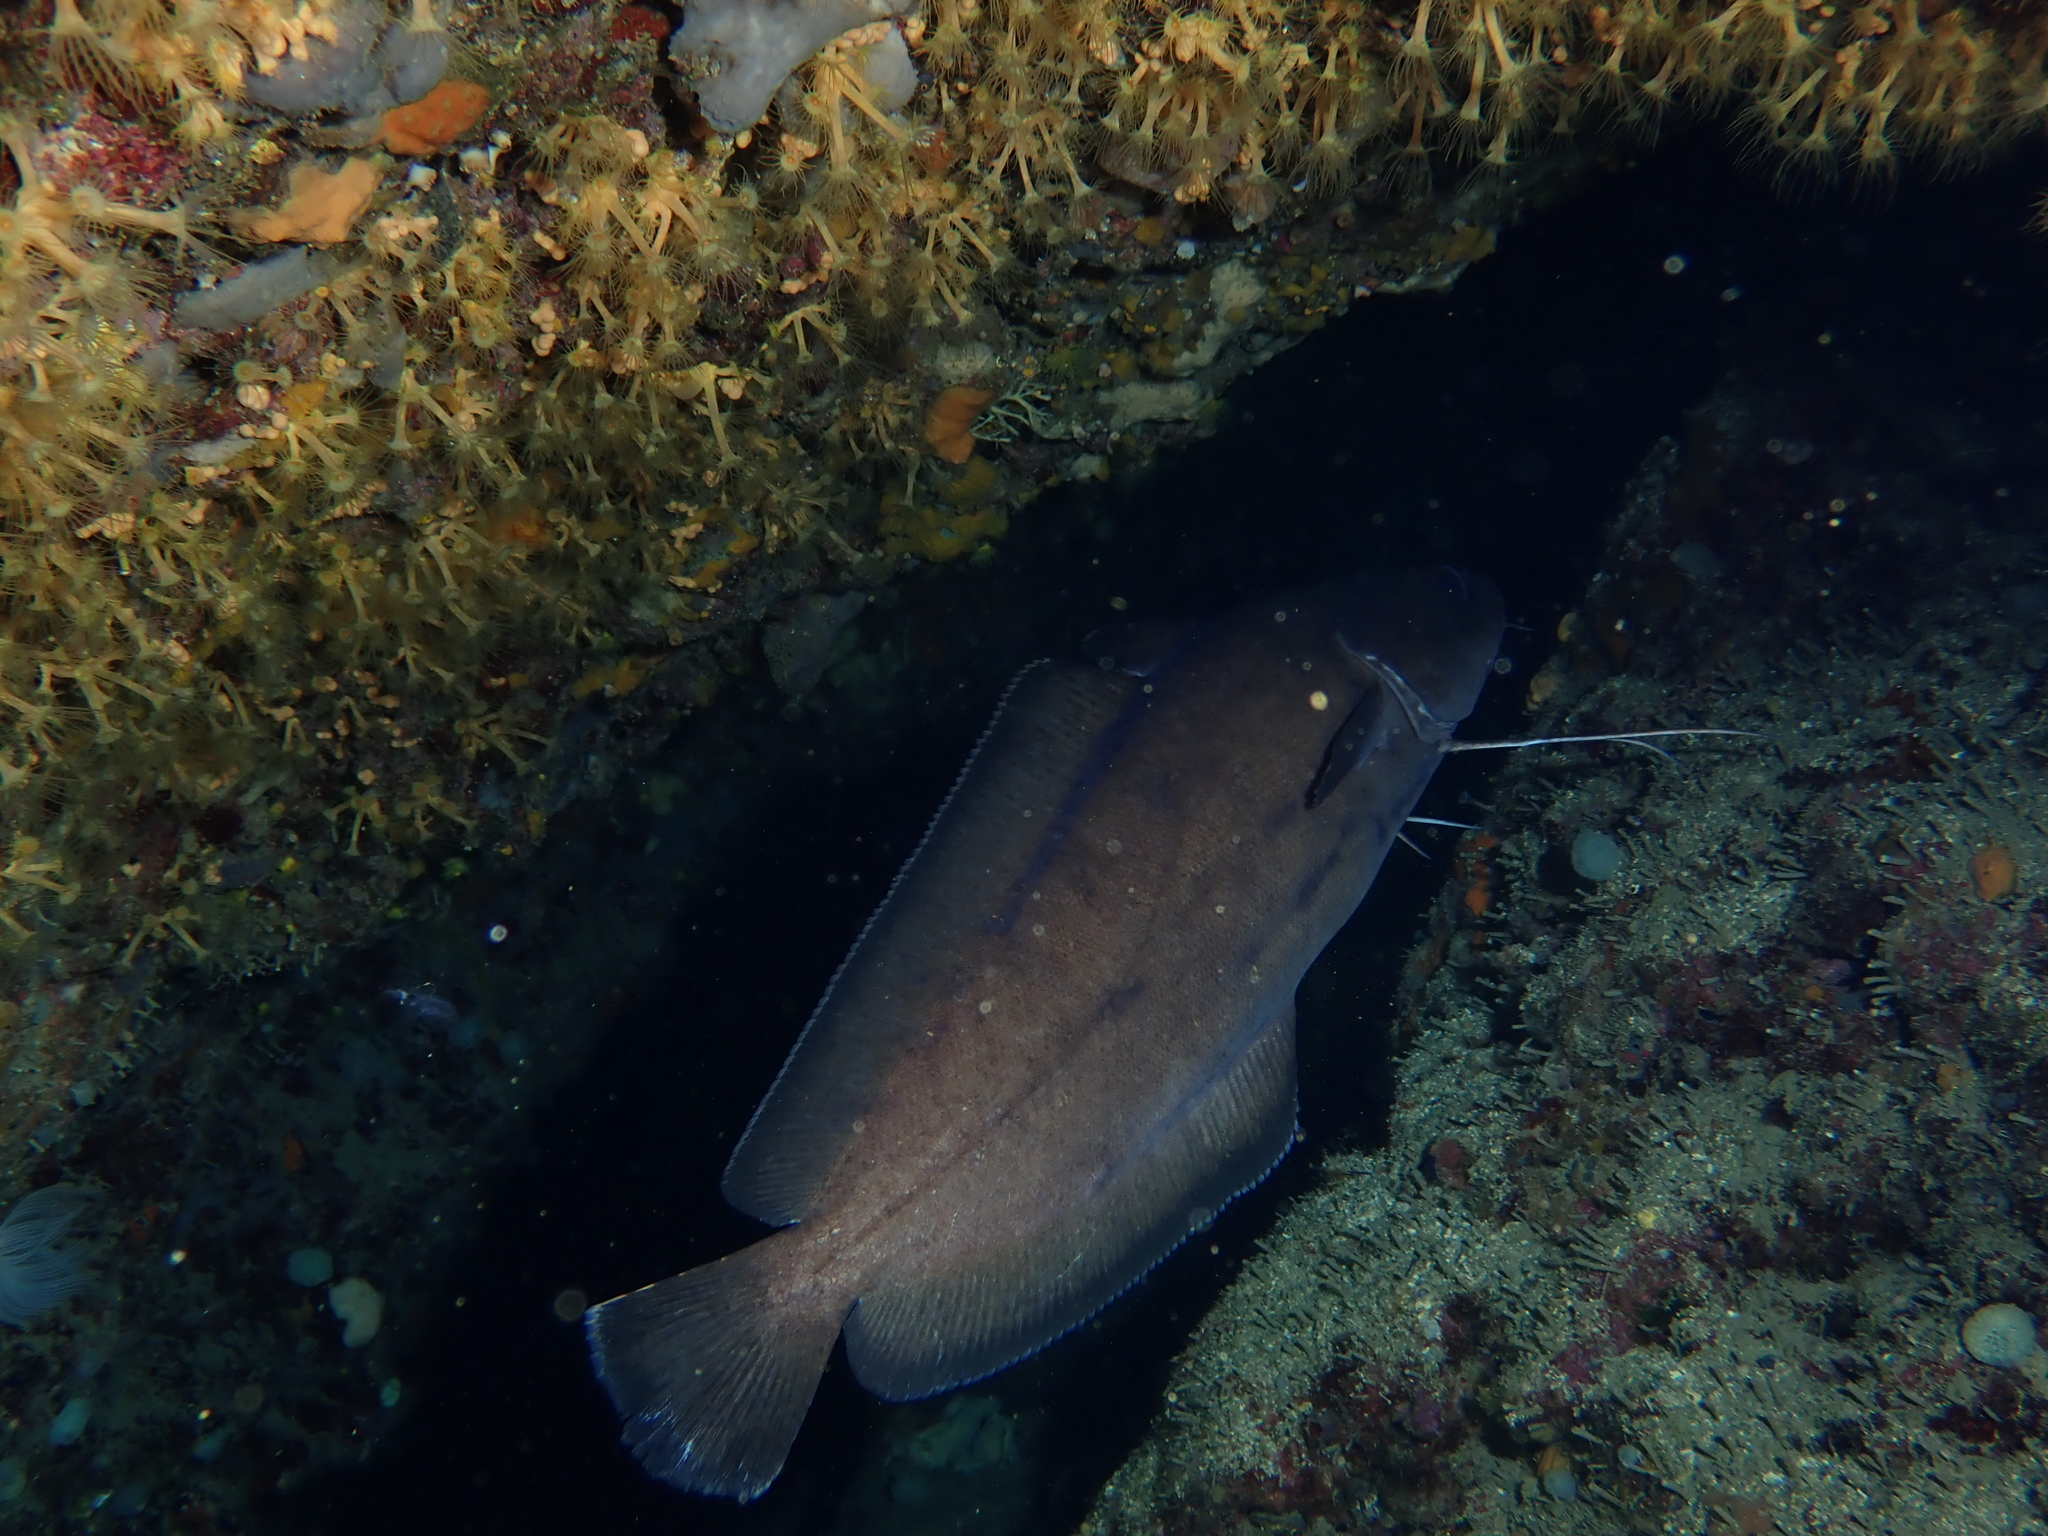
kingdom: Animalia
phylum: Chordata
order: Gadiformes
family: Phycidae
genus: Phycis
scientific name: Phycis phycis
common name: Forkbeard
